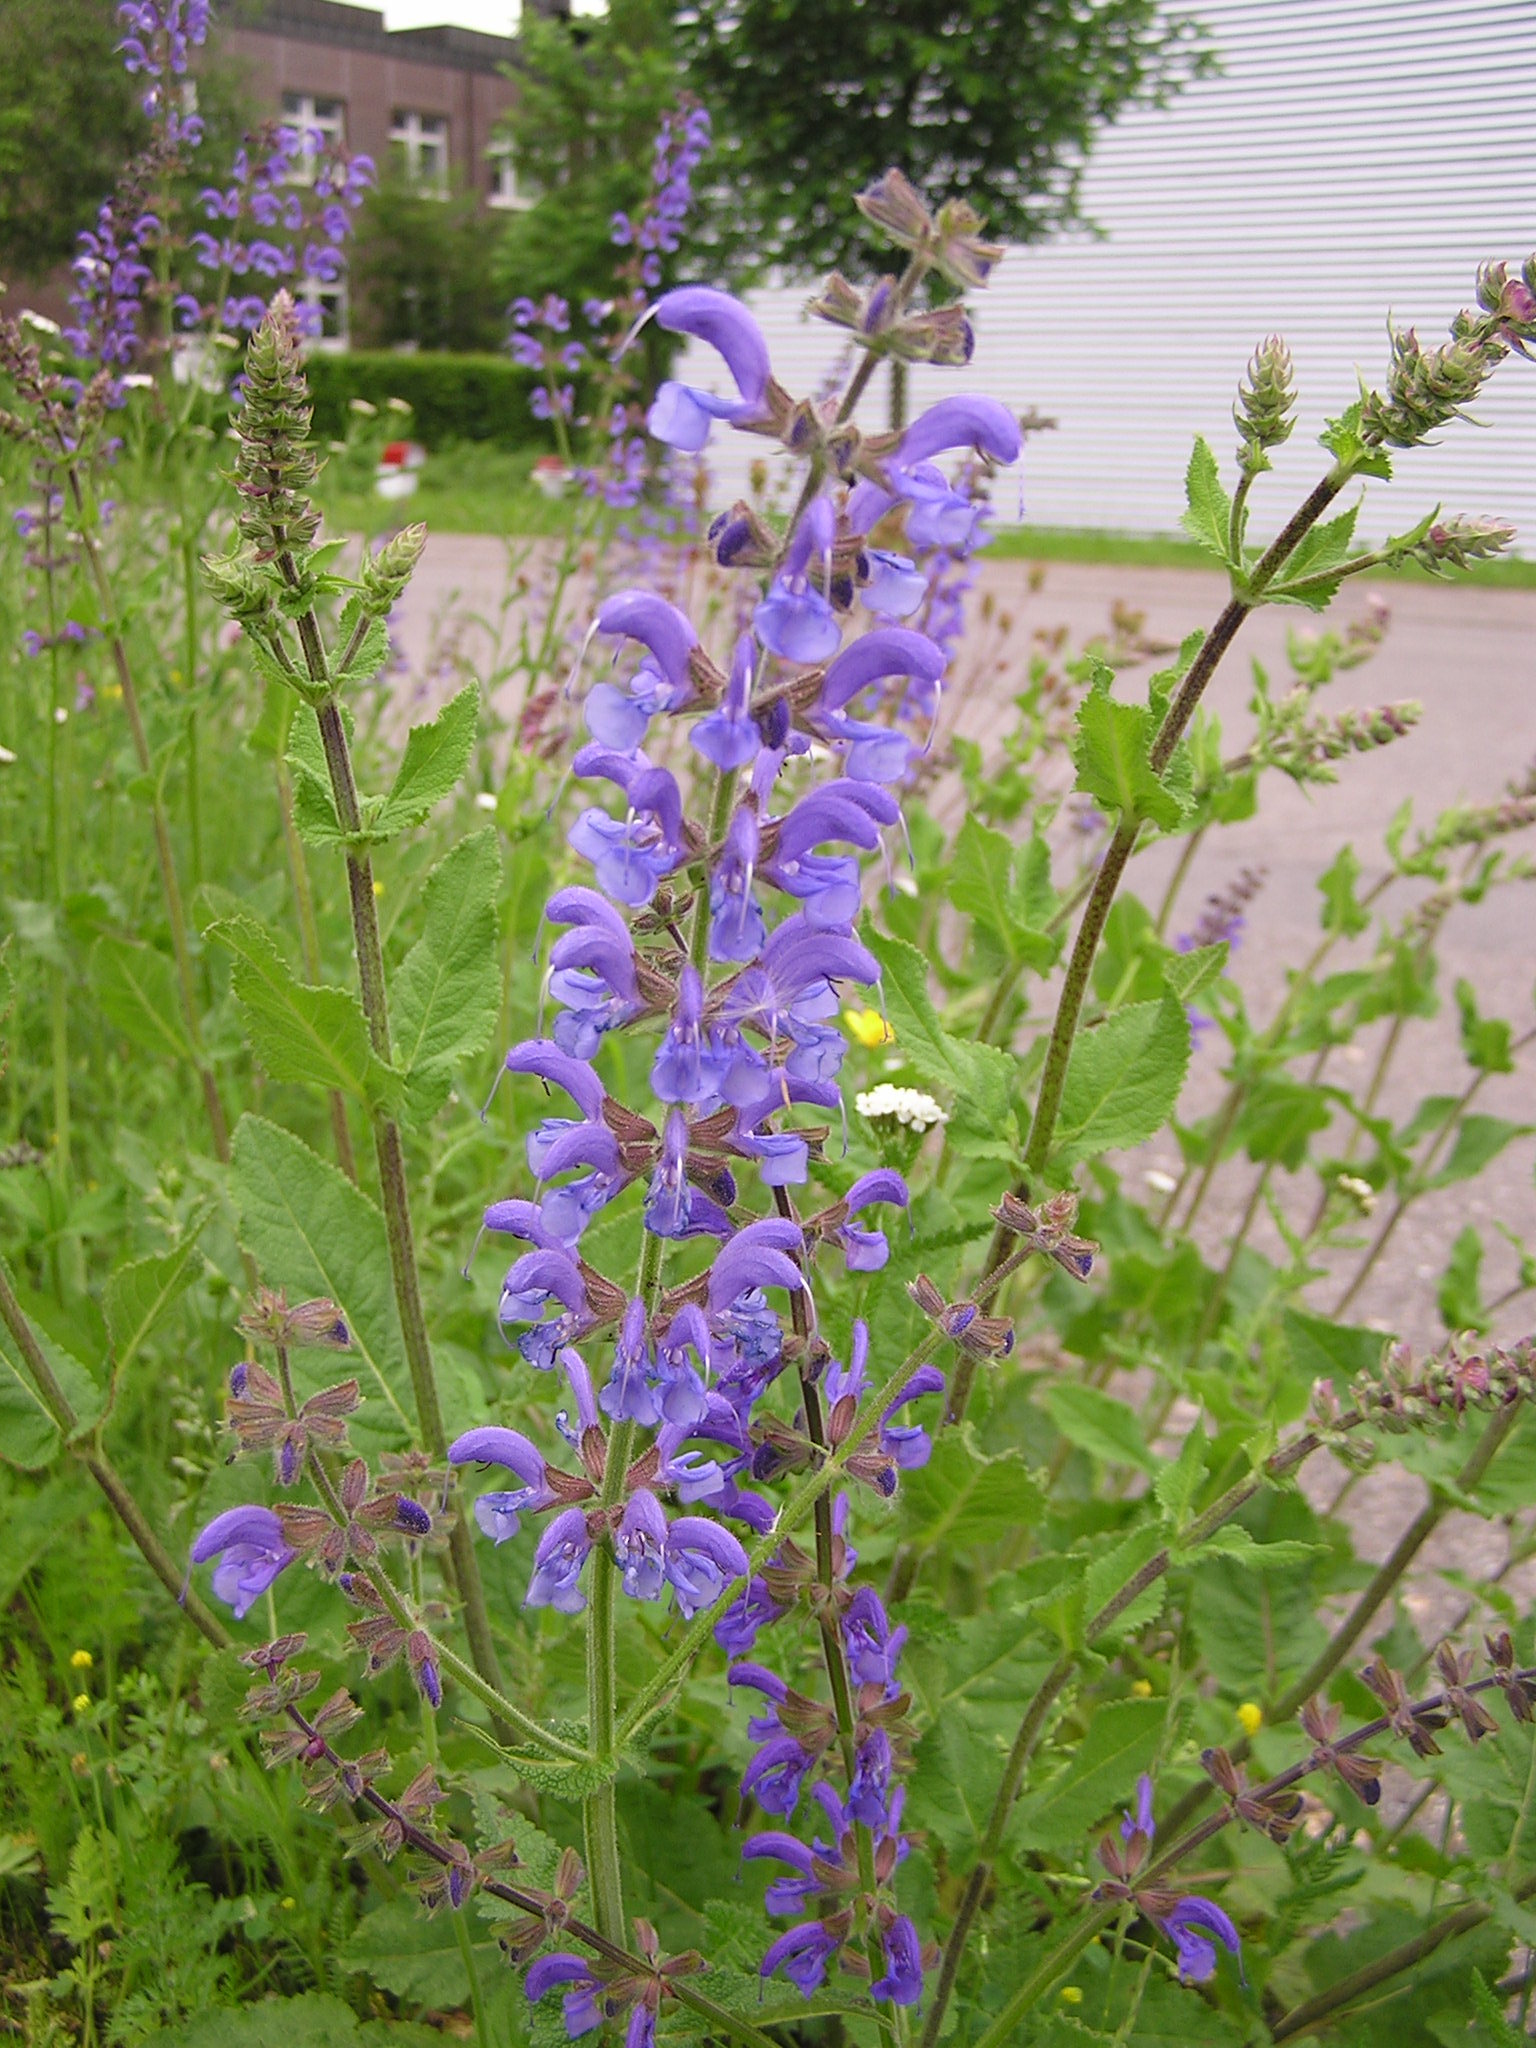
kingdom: Plantae
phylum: Tracheophyta
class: Magnoliopsida
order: Lamiales
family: Lamiaceae
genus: Salvia
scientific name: Salvia pratensis
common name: Meadow sage
